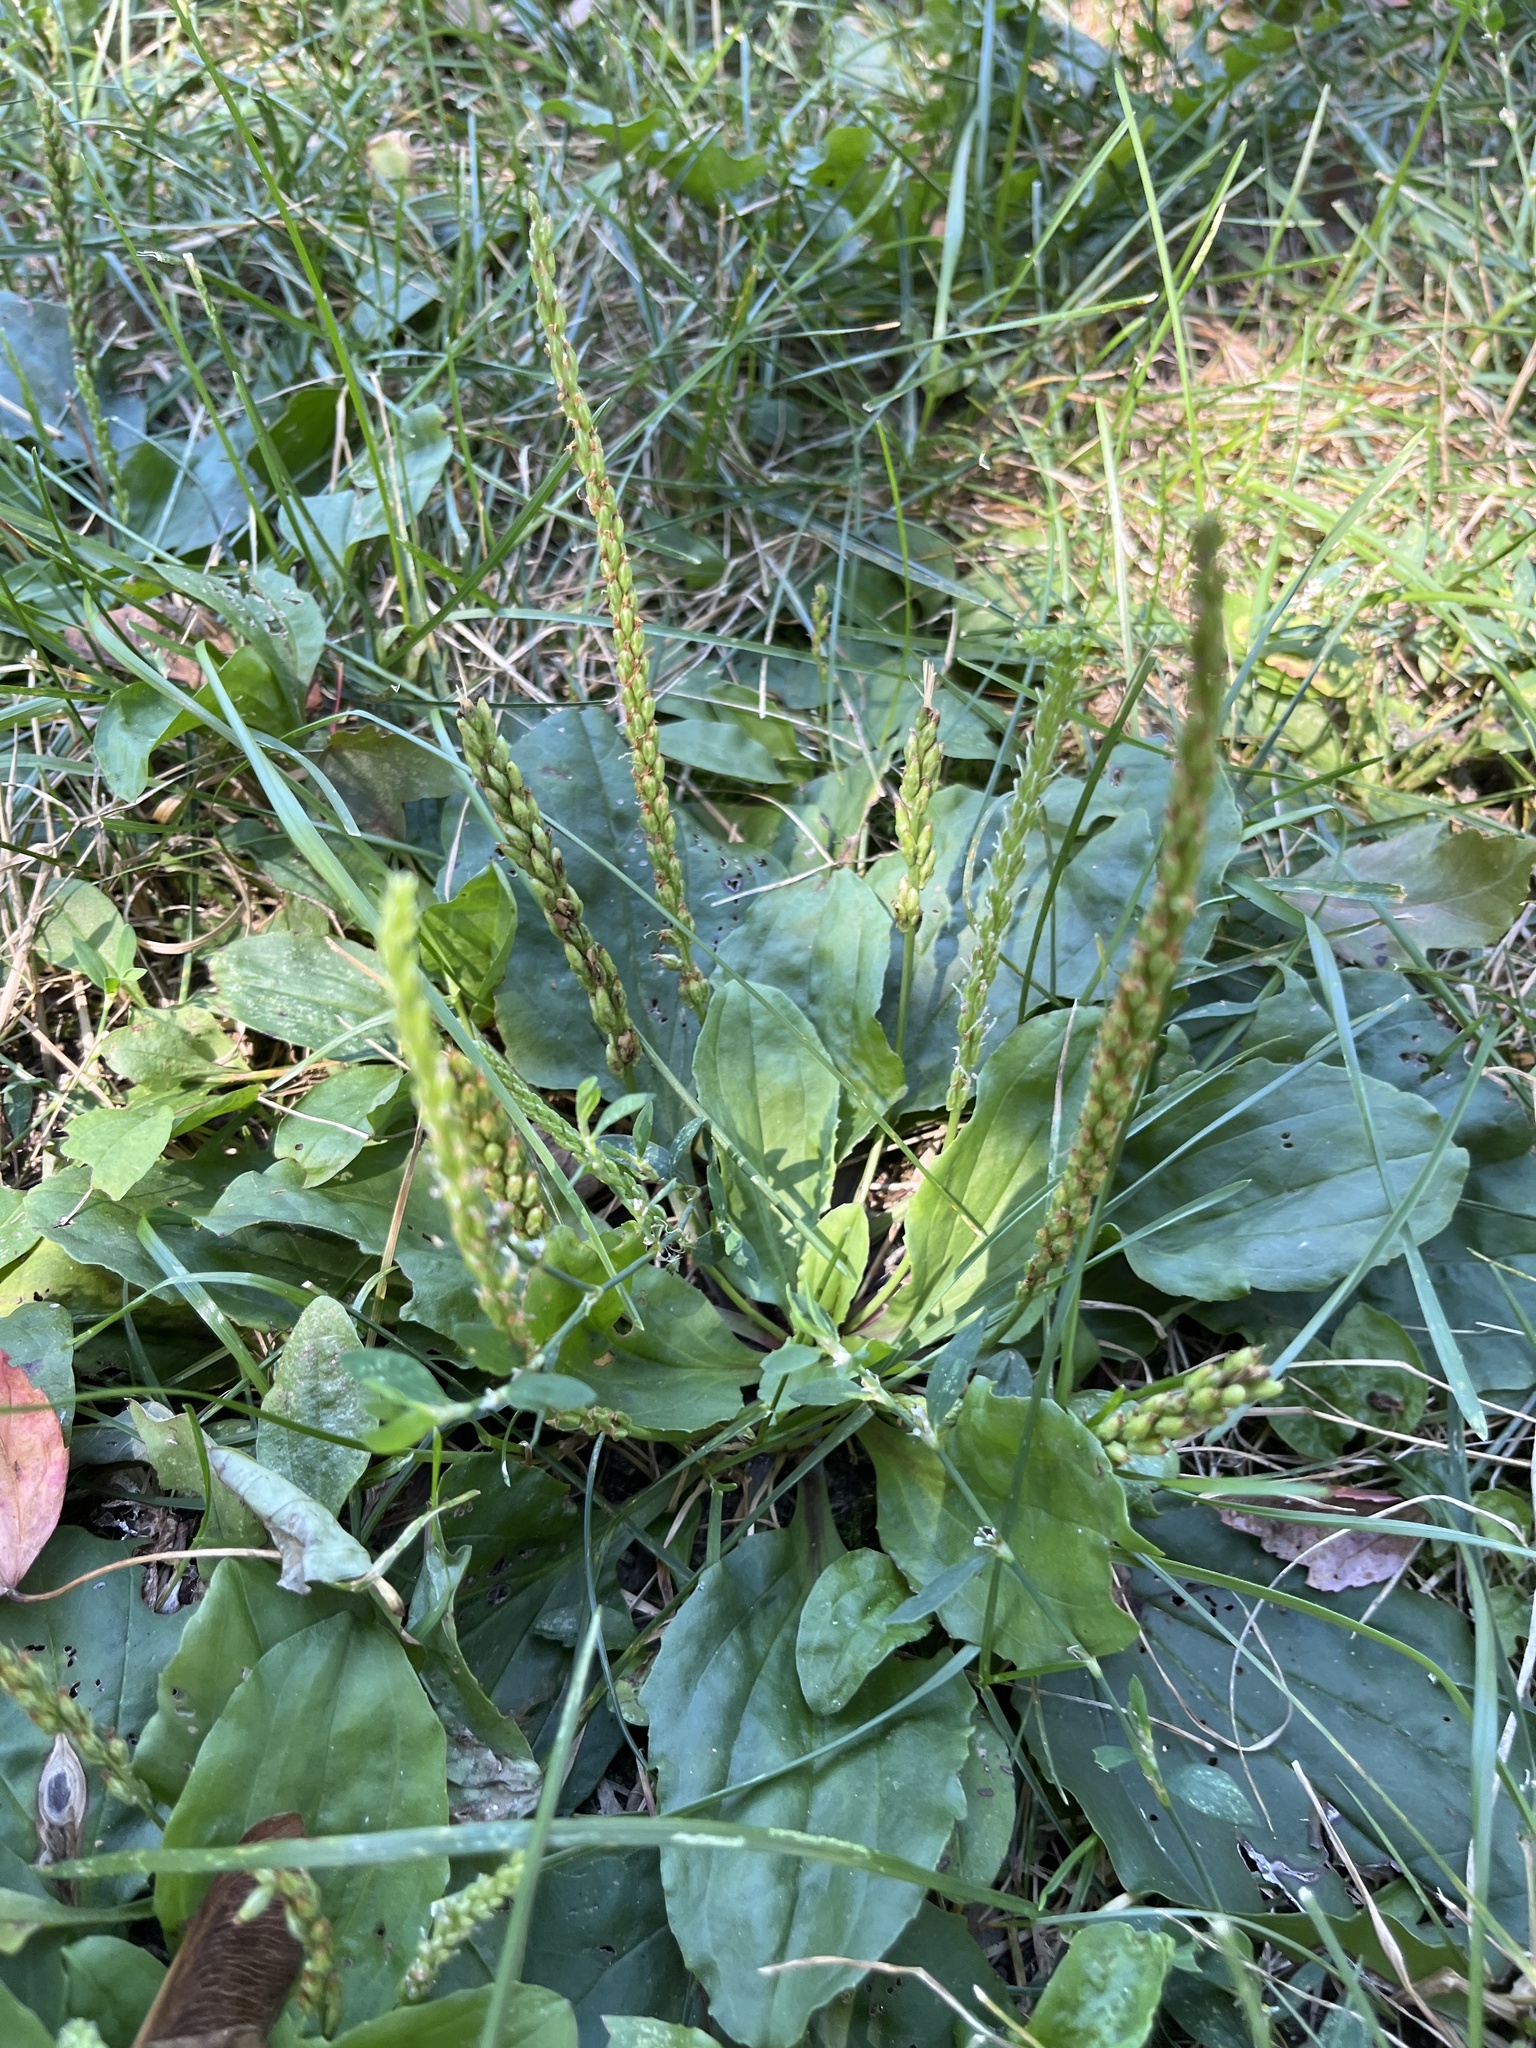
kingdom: Plantae
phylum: Tracheophyta
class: Magnoliopsida
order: Lamiales
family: Plantaginaceae
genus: Plantago
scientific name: Plantago rugelii
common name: American plantain
